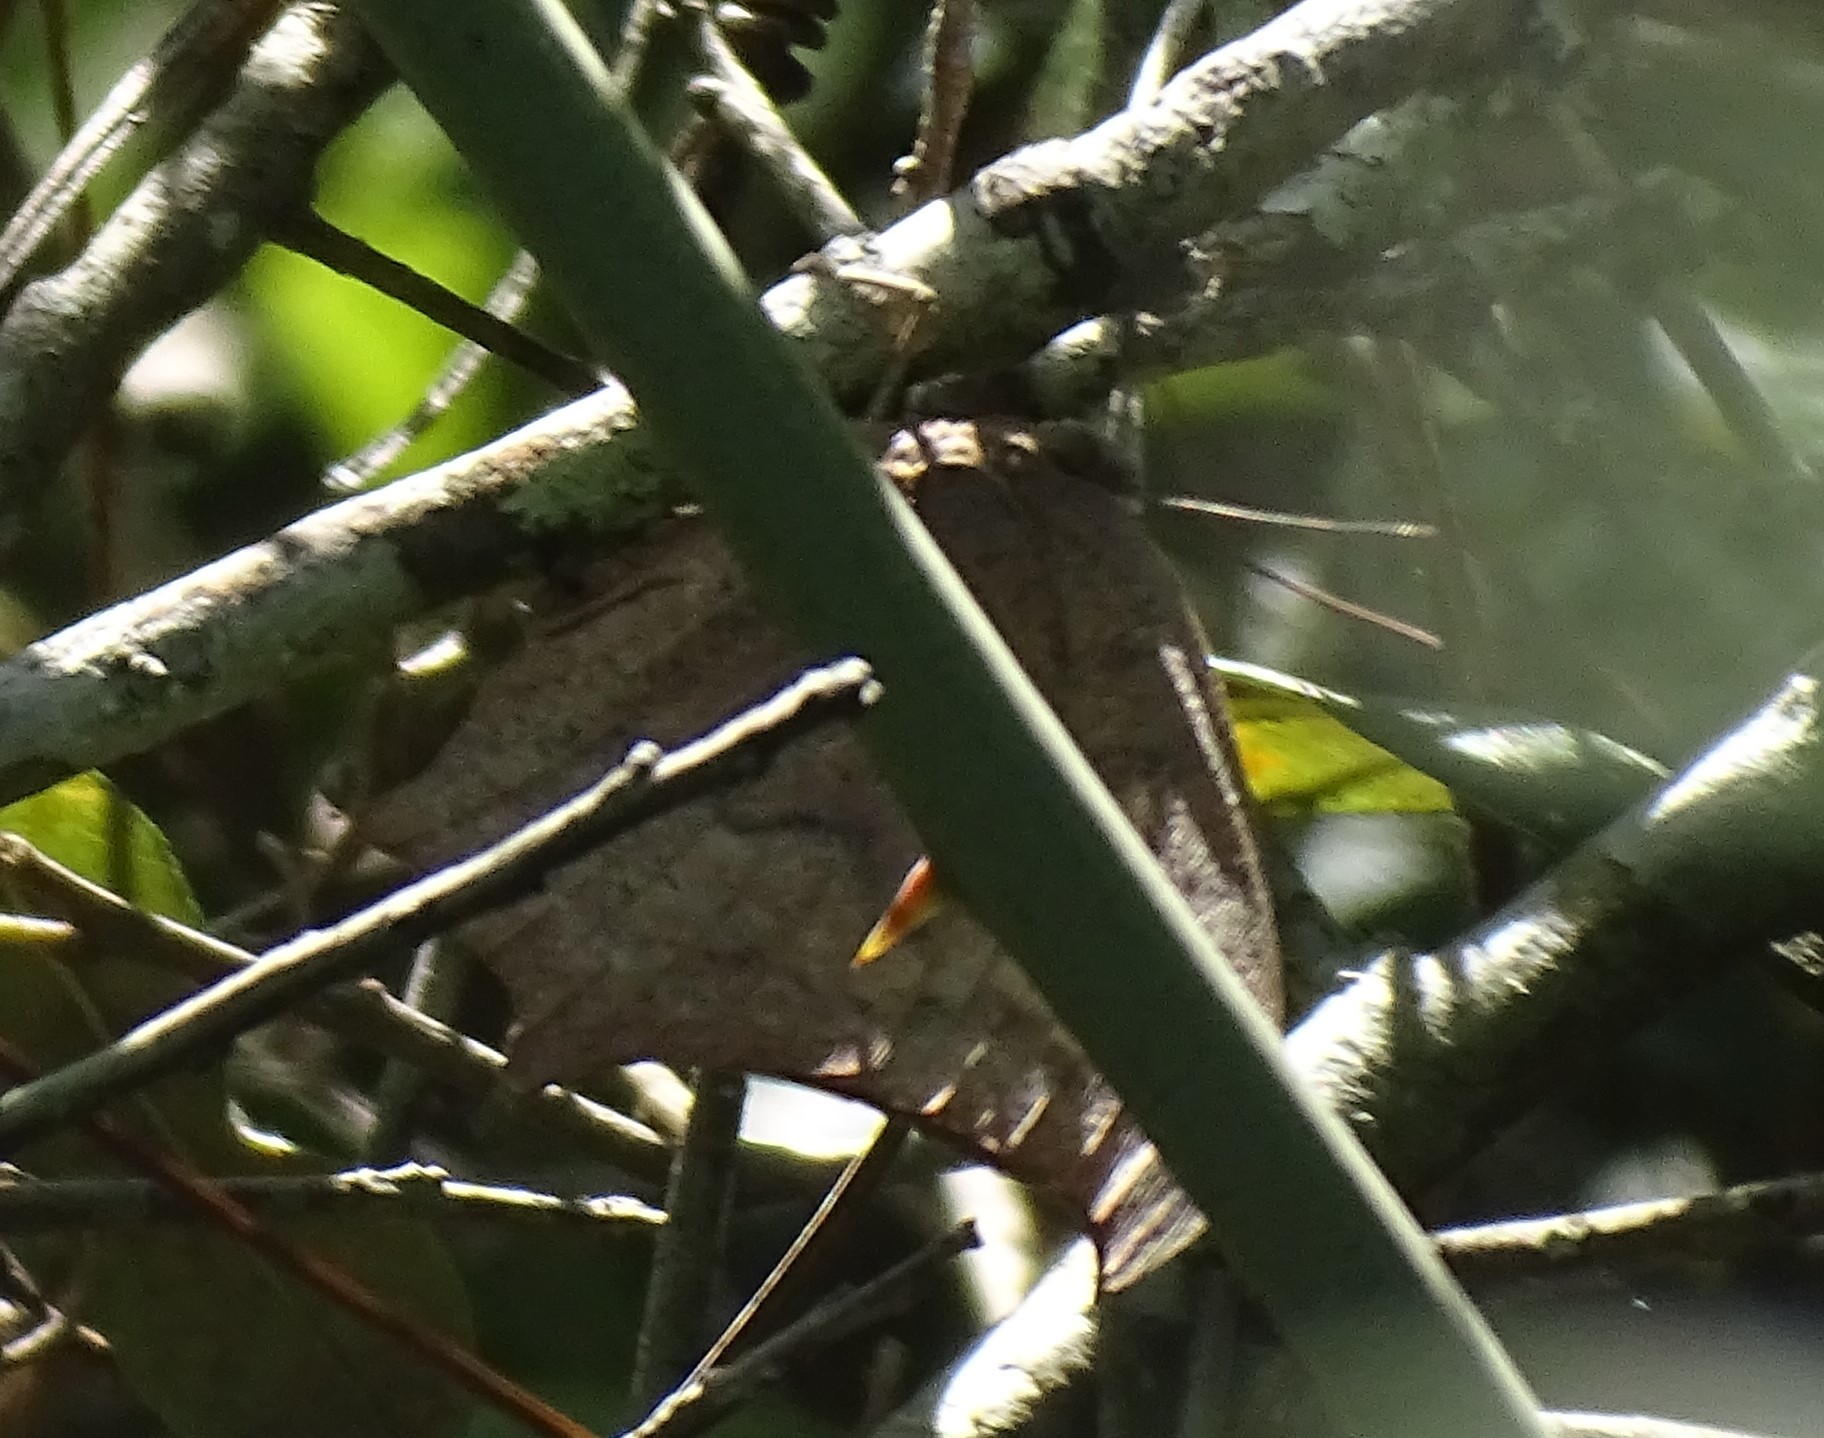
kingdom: Animalia
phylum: Arthropoda
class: Insecta
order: Lepidoptera
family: Nymphalidae
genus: Anaea
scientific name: Anaea andria
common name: Goatweed leafwing
